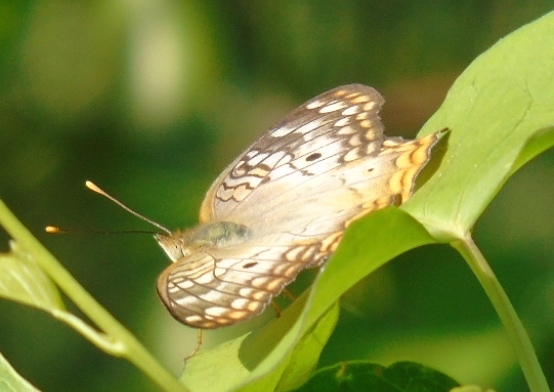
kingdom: Animalia
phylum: Arthropoda
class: Insecta
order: Lepidoptera
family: Nymphalidae
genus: Anartia
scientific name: Anartia jatrophae
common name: White peacock
